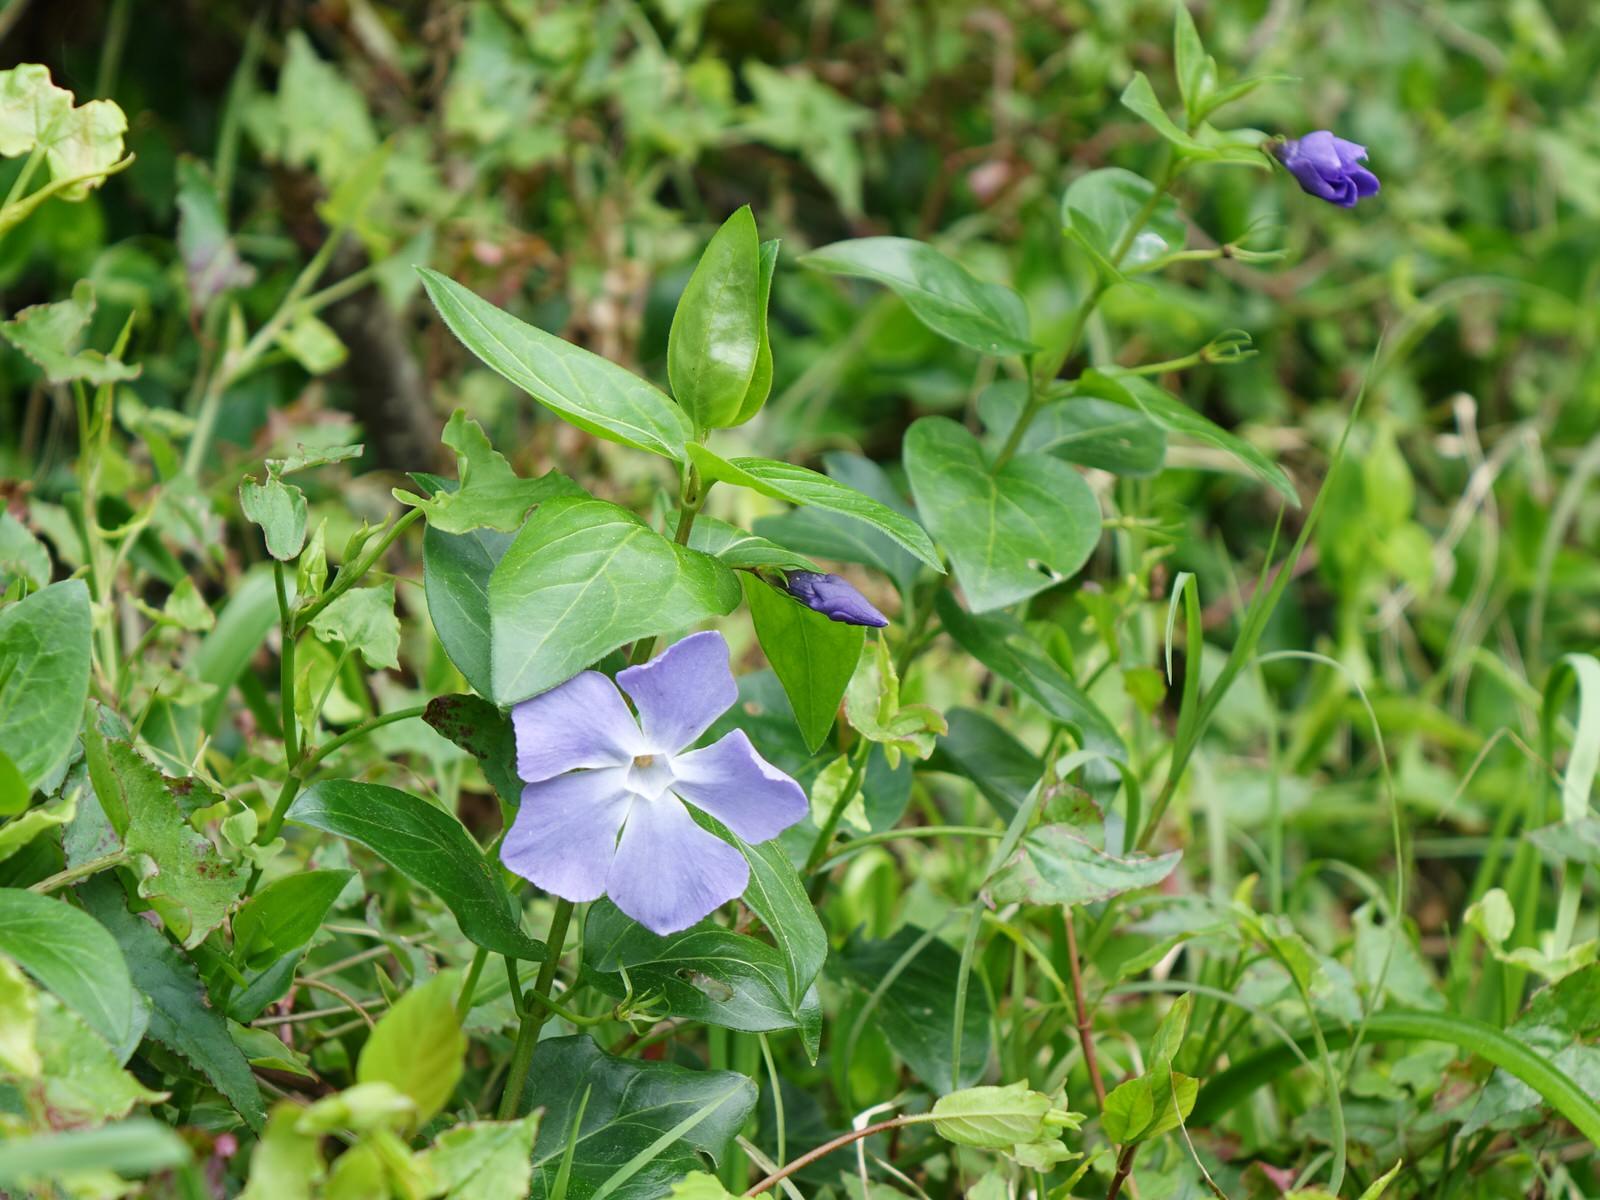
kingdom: Plantae
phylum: Tracheophyta
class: Magnoliopsida
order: Gentianales
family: Apocynaceae
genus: Vinca
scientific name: Vinca major
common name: Greater periwinkle
